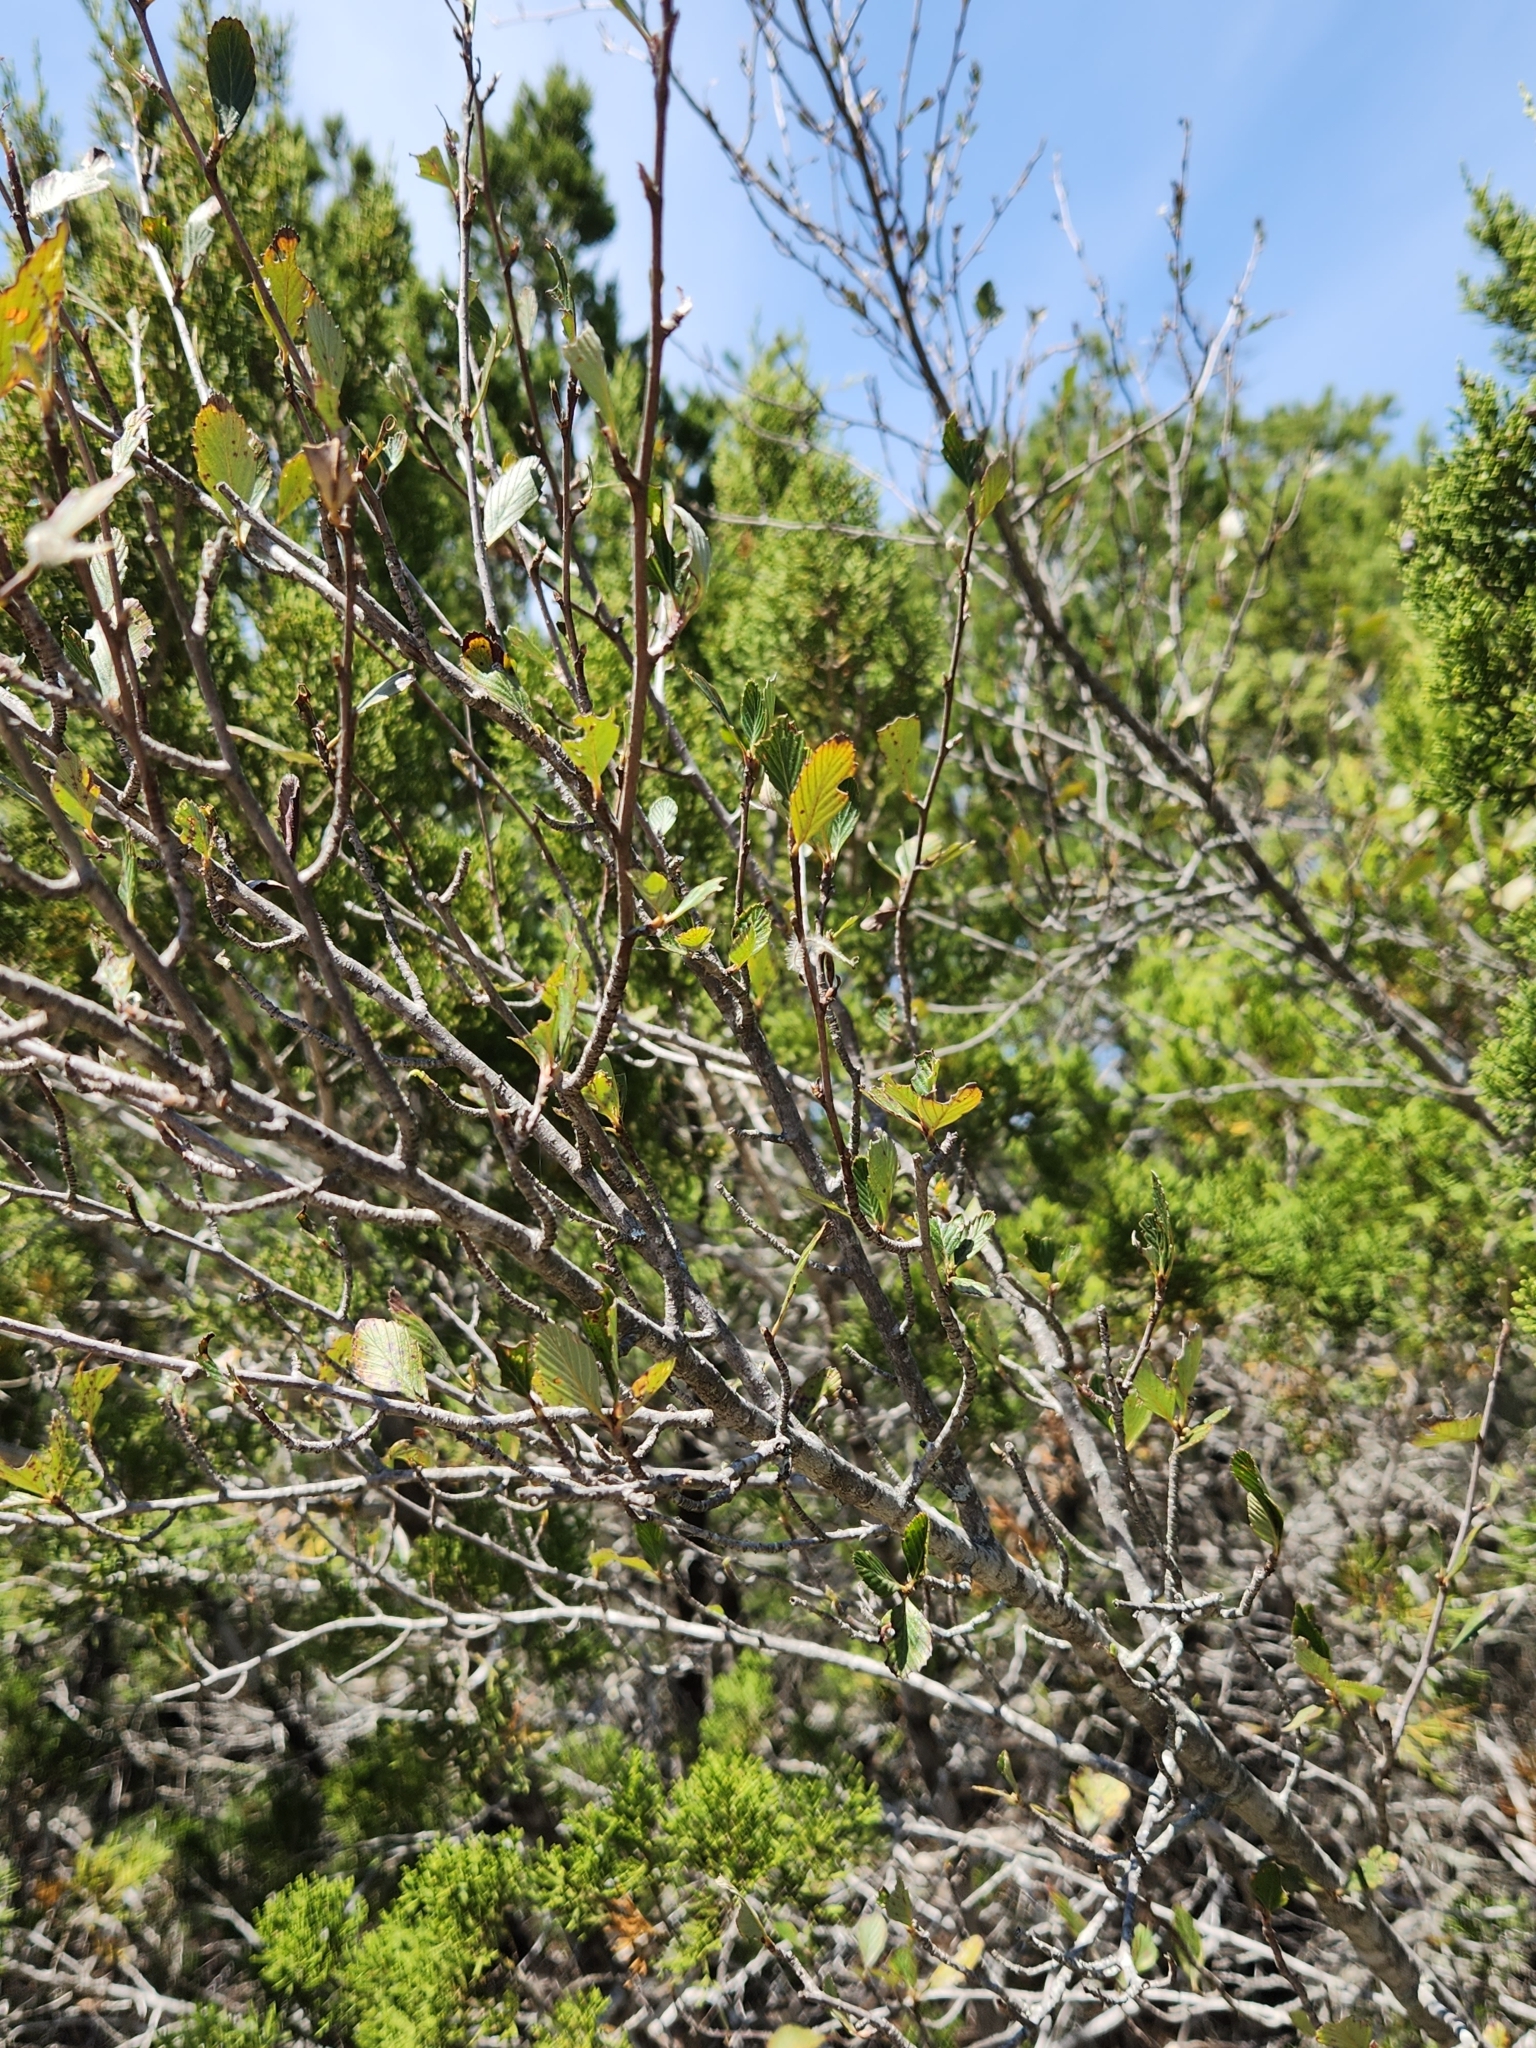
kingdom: Plantae
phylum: Tracheophyta
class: Magnoliopsida
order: Rosales
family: Rosaceae
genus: Cercocarpus
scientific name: Cercocarpus montanus
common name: Alder-leaf cercocarpus
